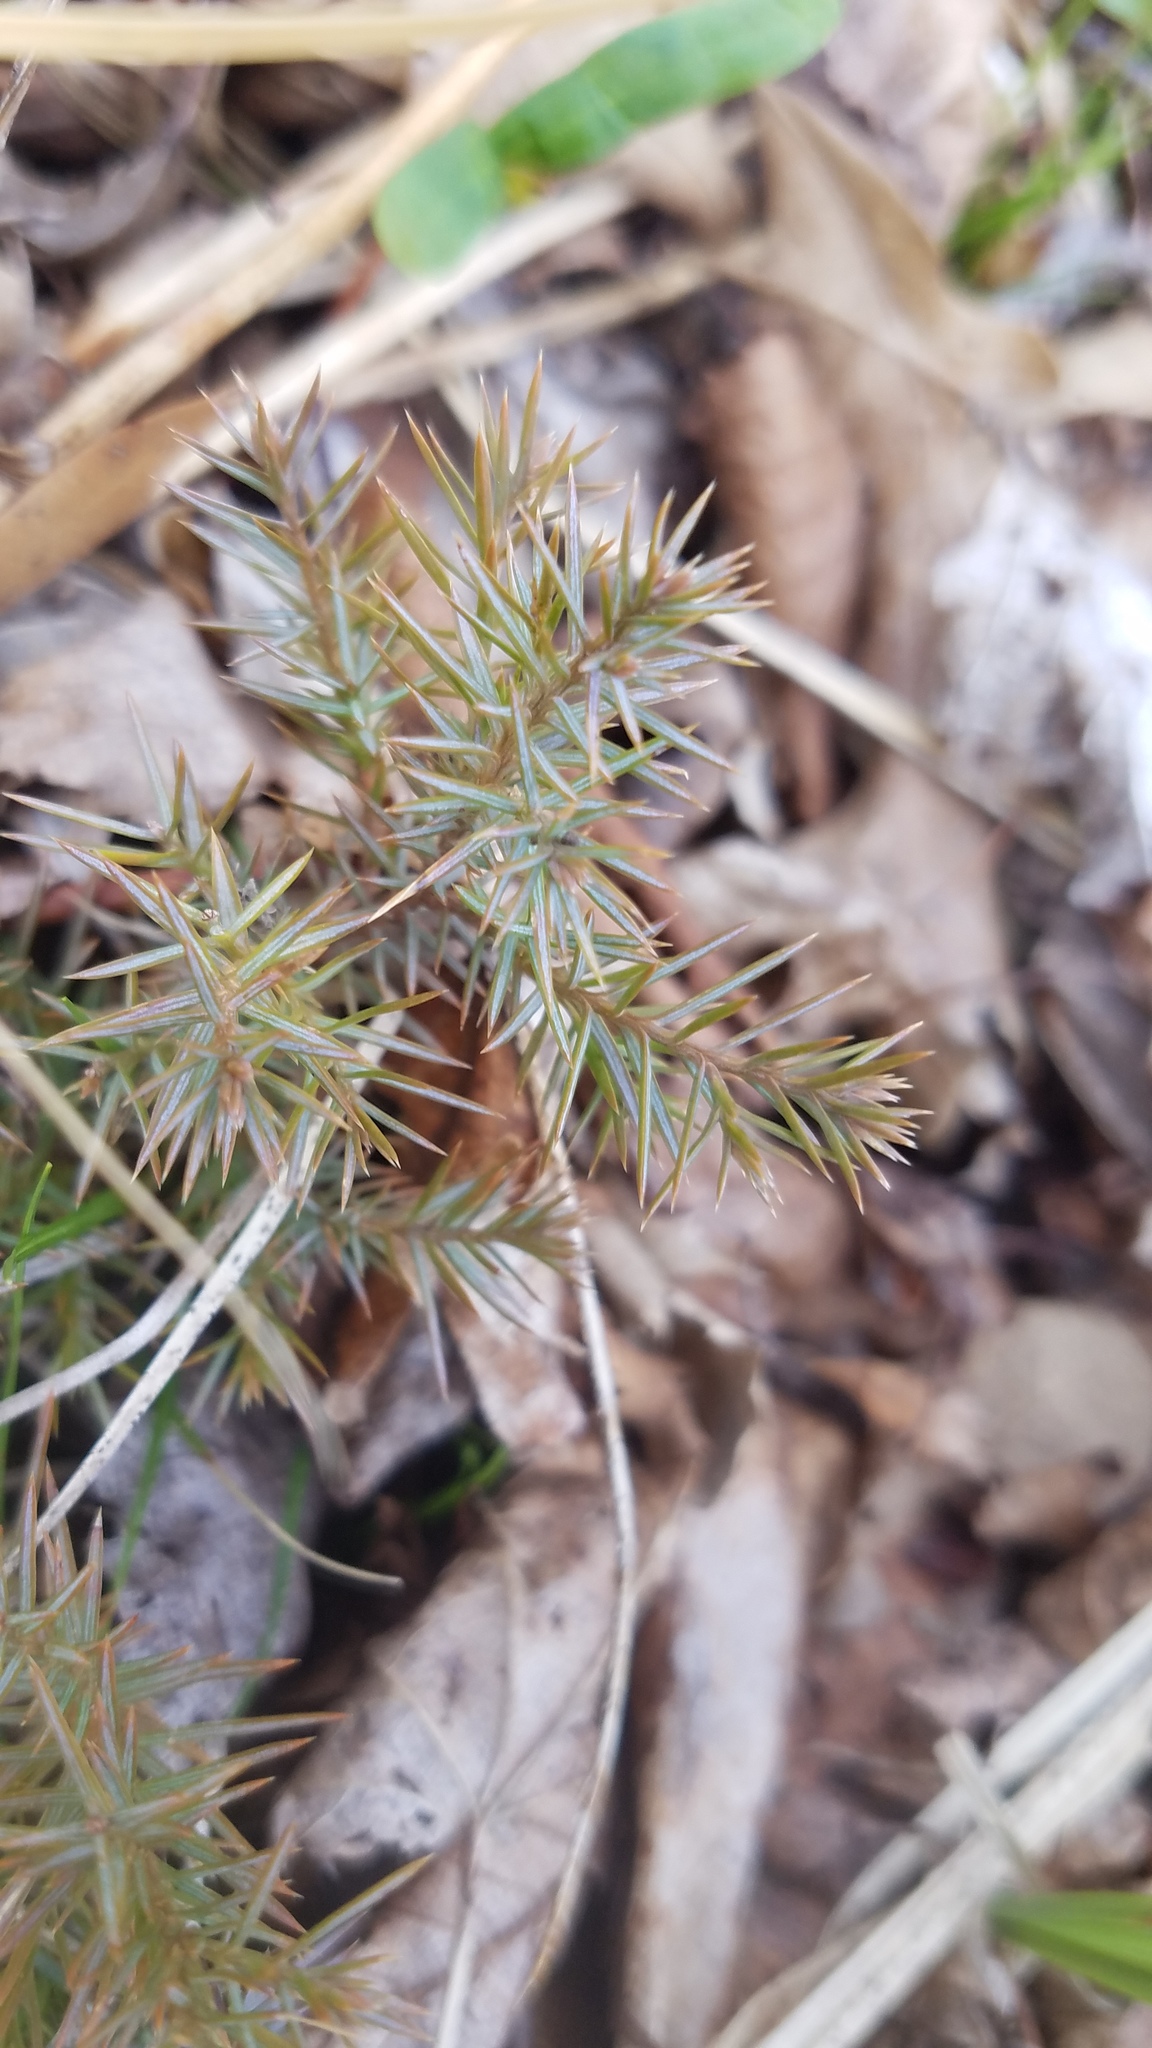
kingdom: Plantae
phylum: Tracheophyta
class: Pinopsida
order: Pinales
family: Cupressaceae
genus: Juniperus
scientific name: Juniperus virginiana
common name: Red juniper
